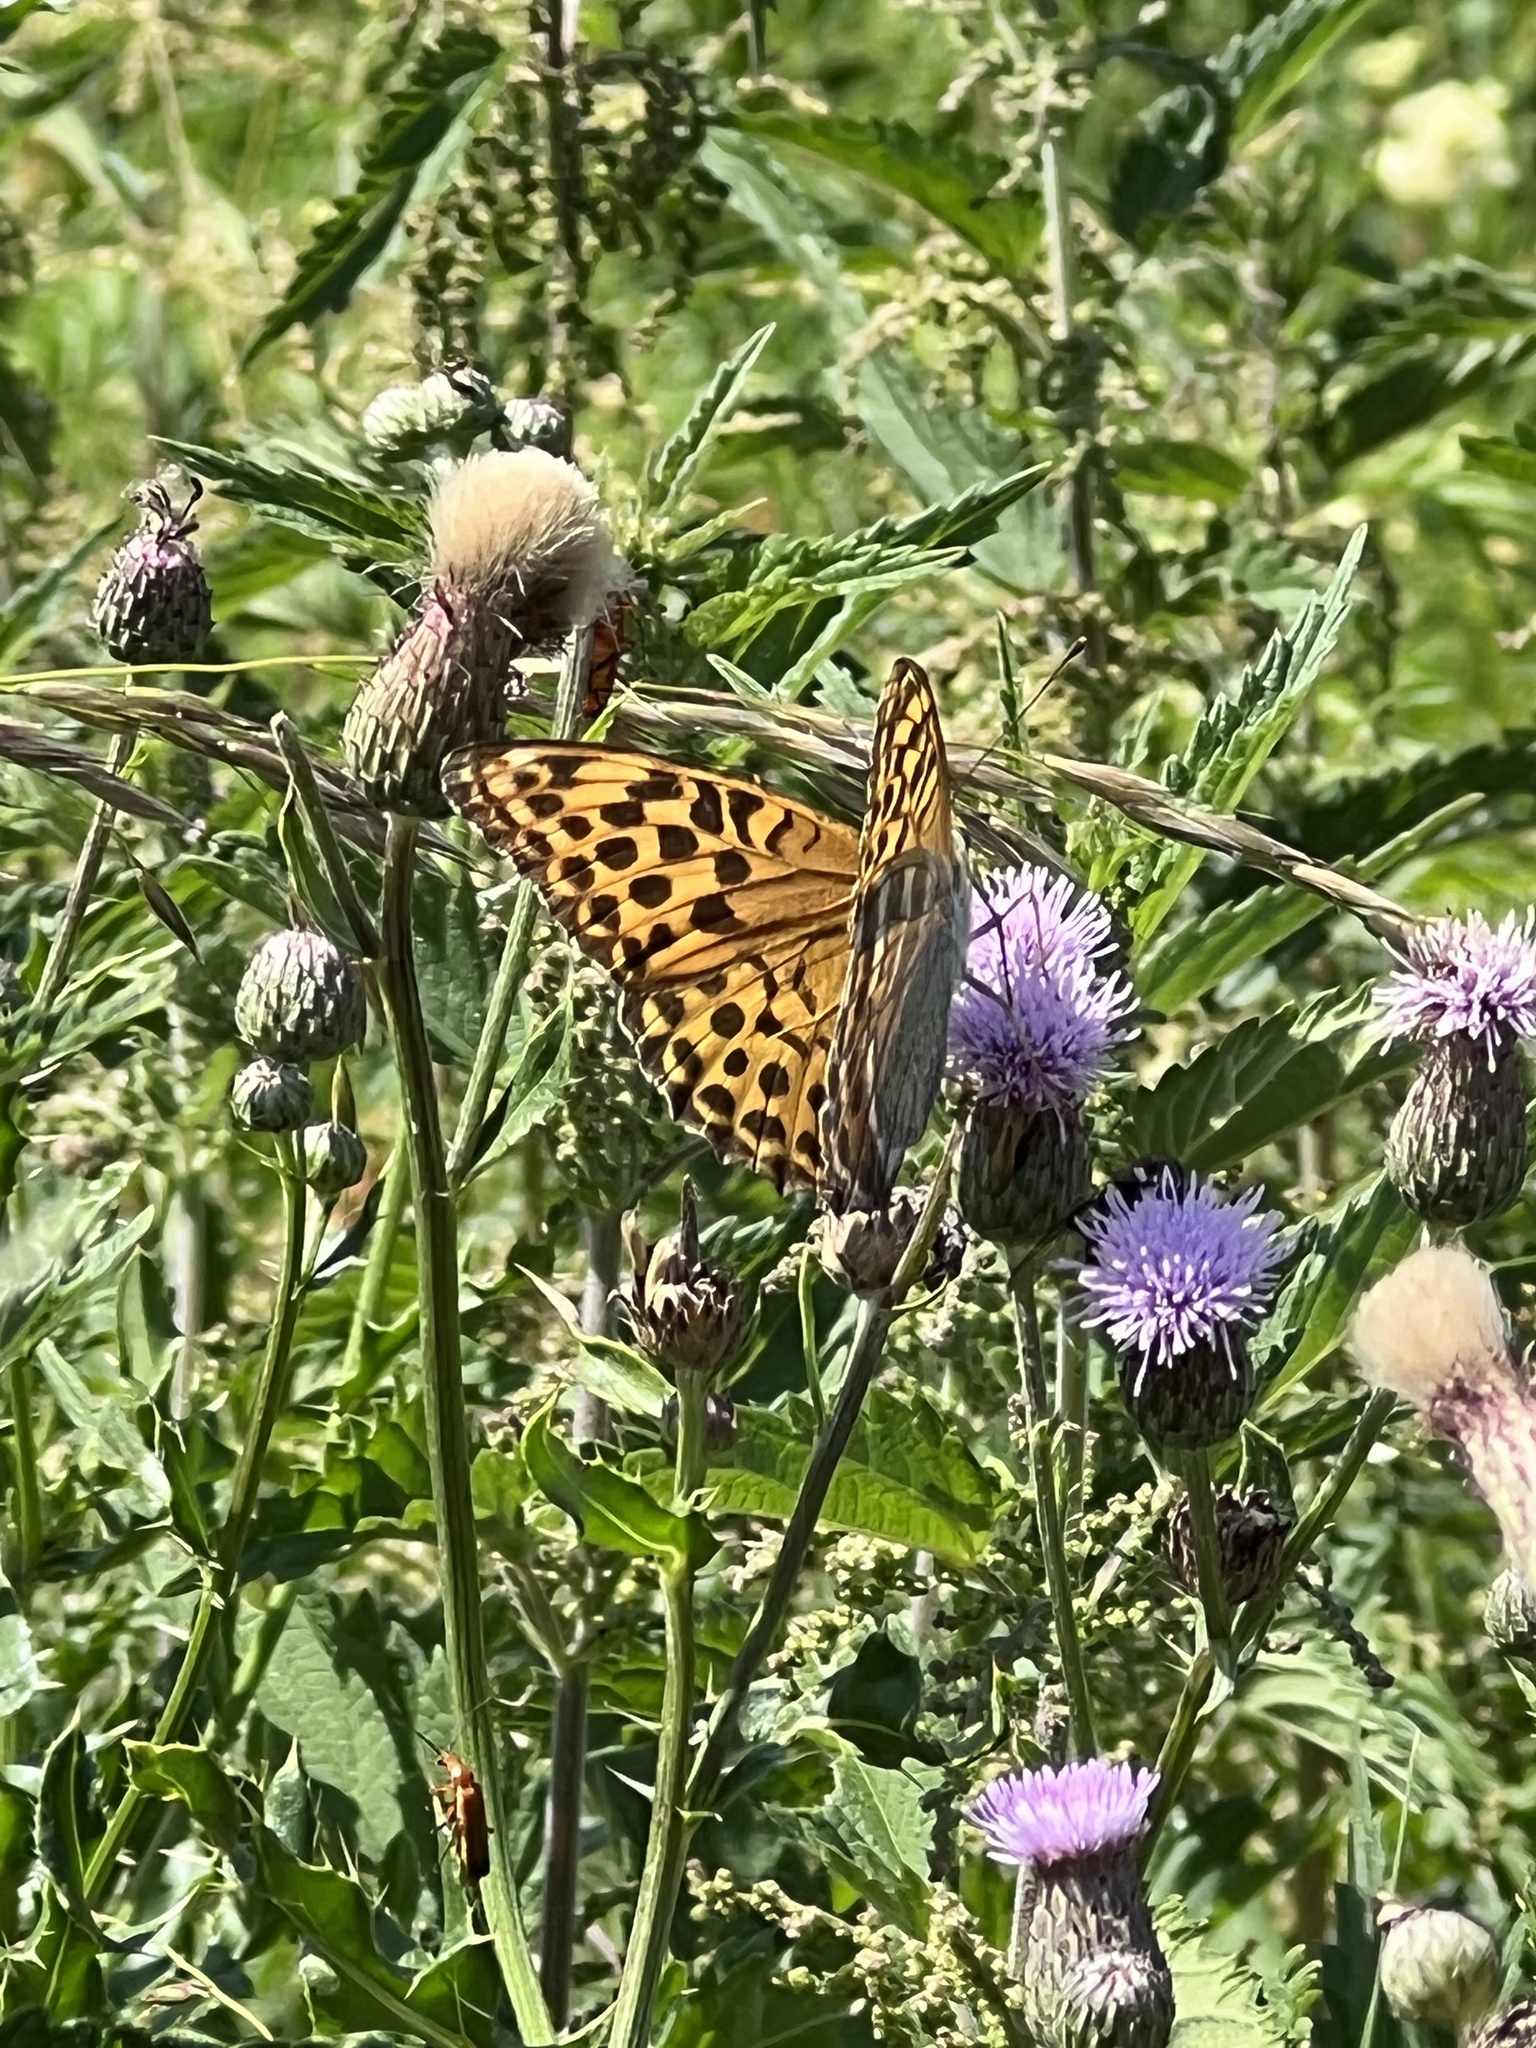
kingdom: Animalia
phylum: Arthropoda
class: Insecta
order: Lepidoptera
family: Nymphalidae
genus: Argynnis
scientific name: Argynnis paphia
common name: Silver-washed fritillary
